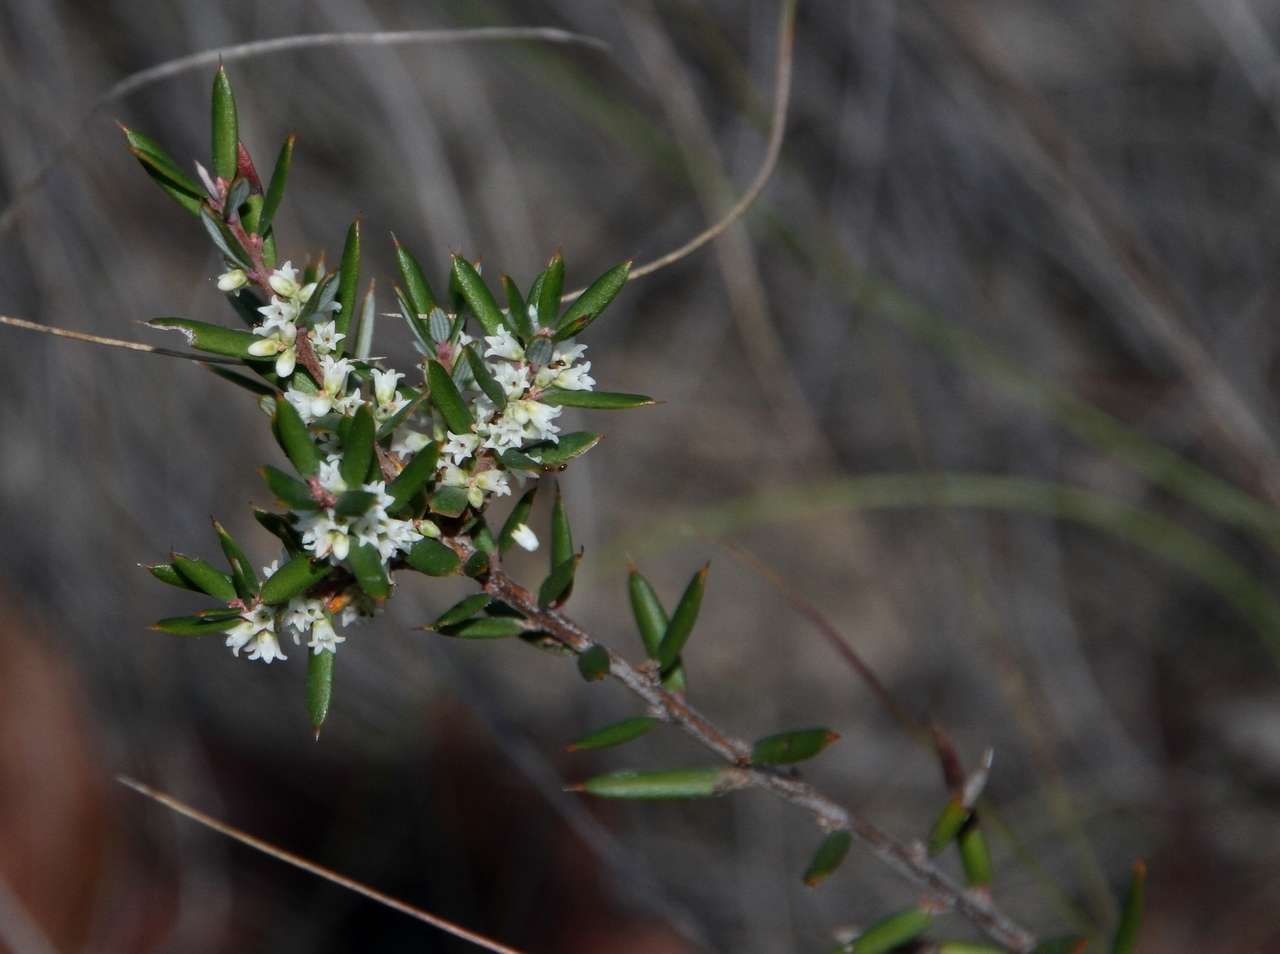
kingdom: Plantae
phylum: Tracheophyta
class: Magnoliopsida
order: Ericales
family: Ericaceae
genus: Monotoca
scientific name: Monotoca scoparia
